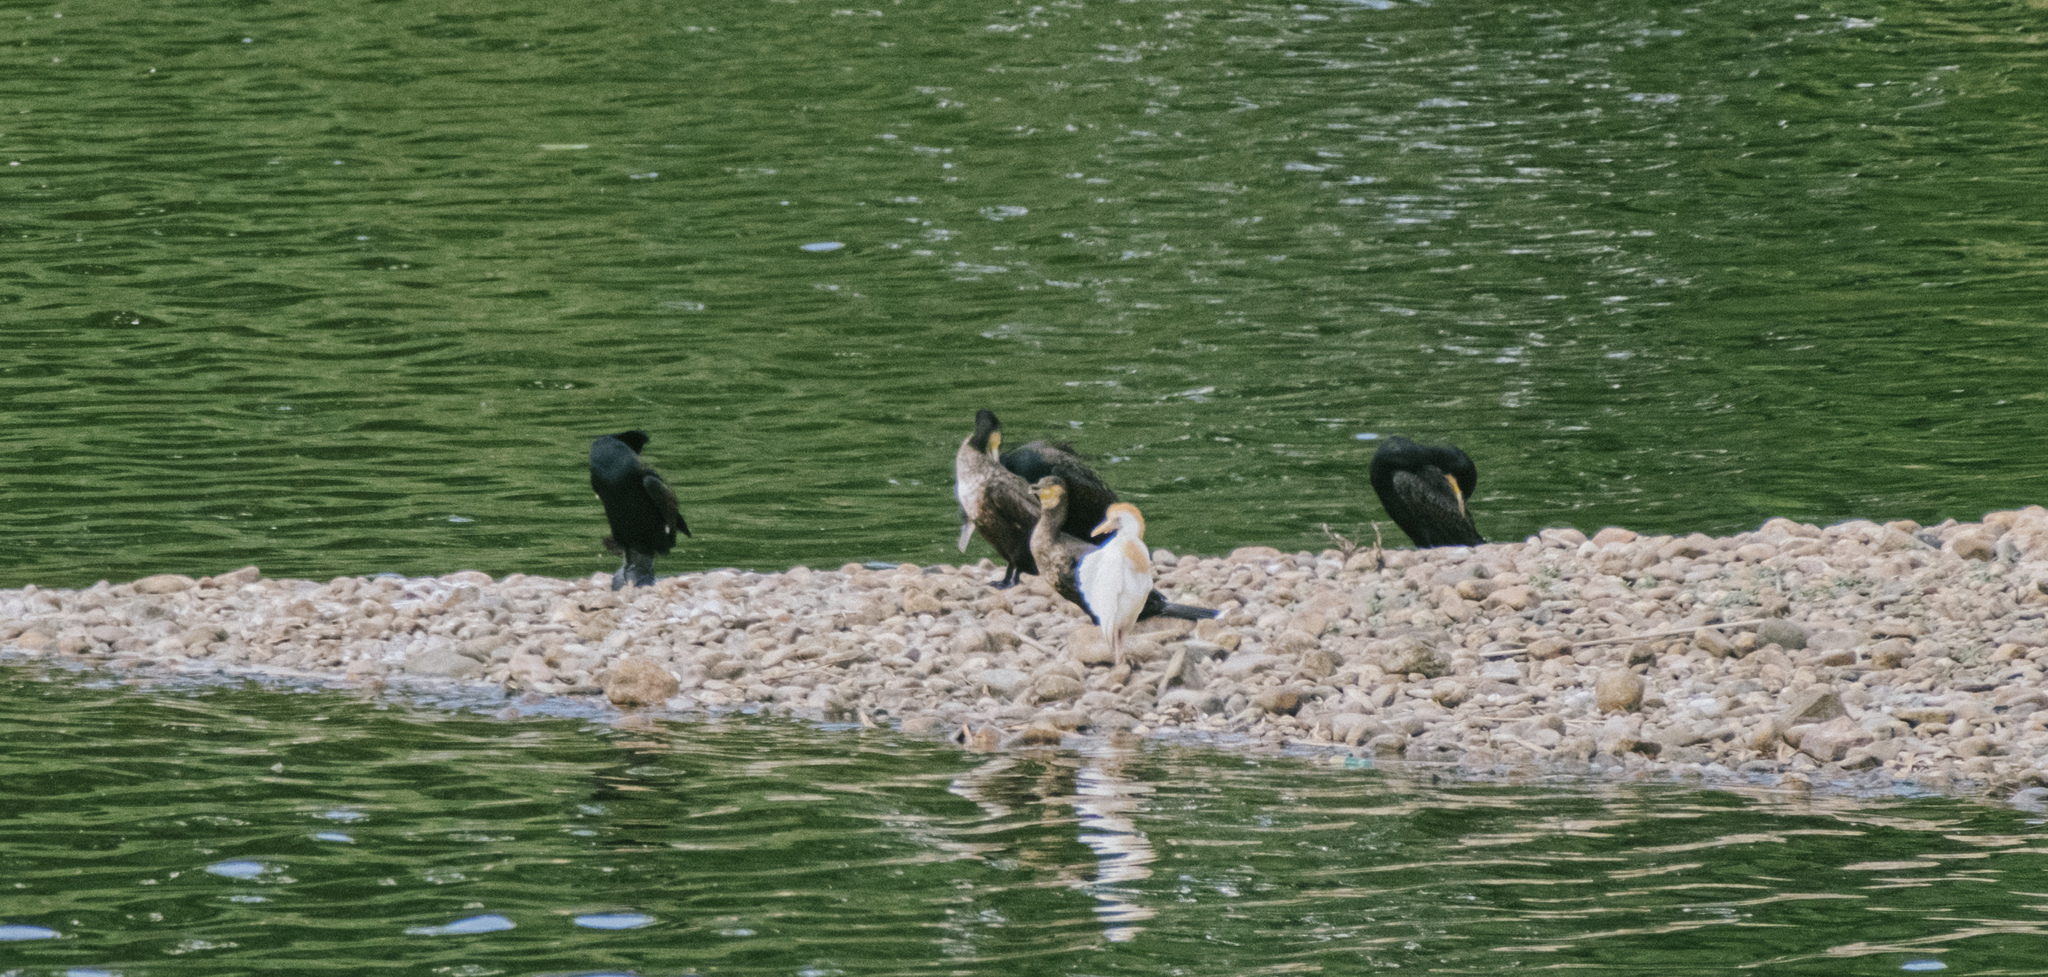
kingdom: Animalia
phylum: Chordata
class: Aves
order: Suliformes
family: Phalacrocoracidae
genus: Phalacrocorax
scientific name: Phalacrocorax carbo
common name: Great cormorant
